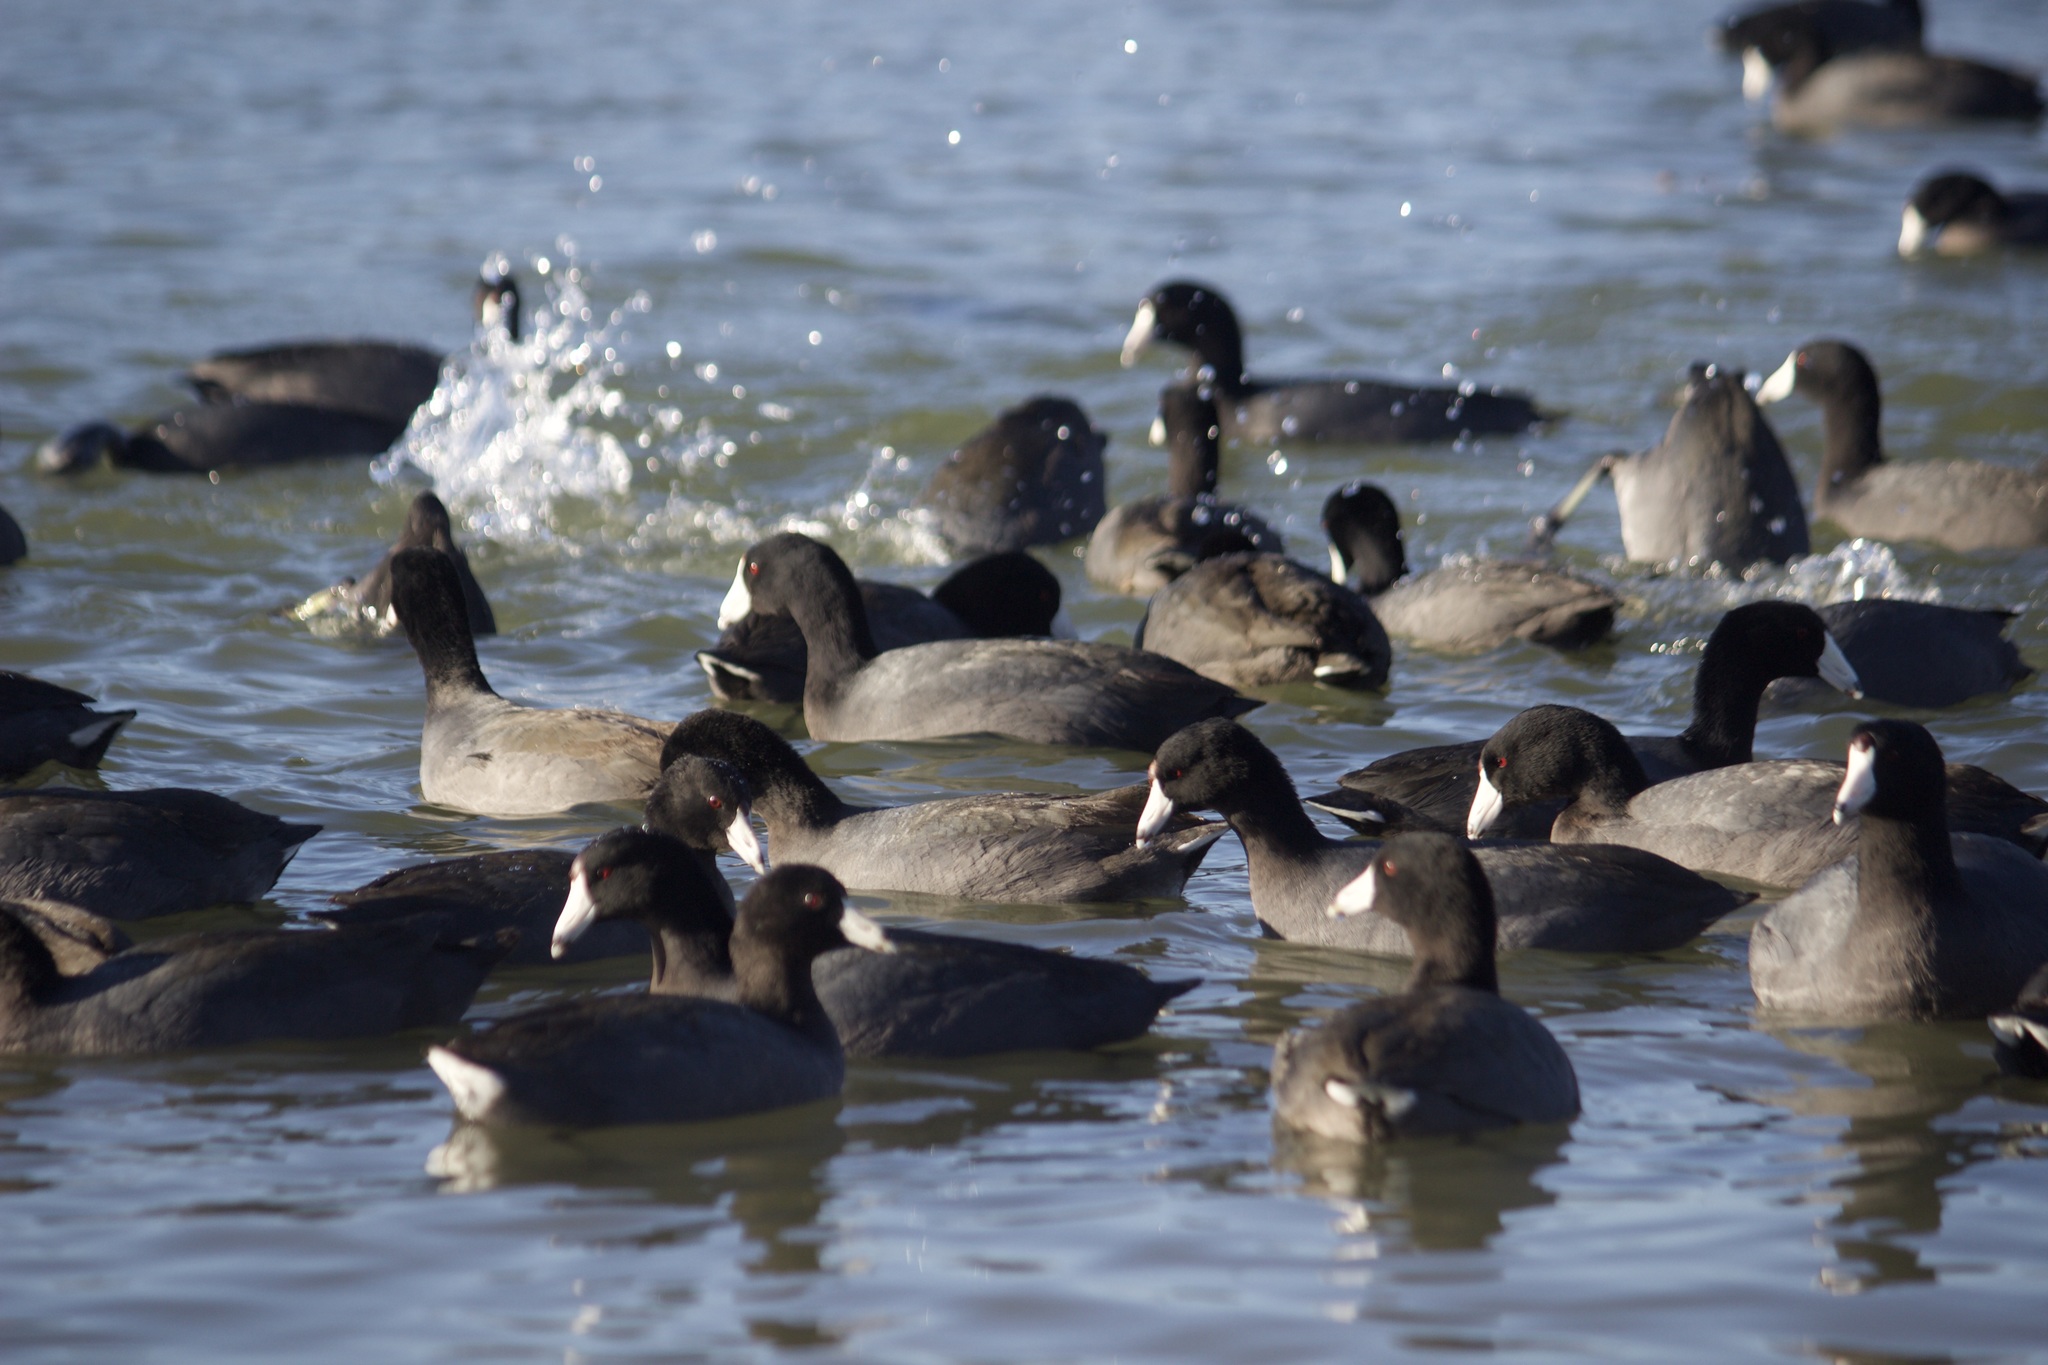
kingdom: Animalia
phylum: Chordata
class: Aves
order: Gruiformes
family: Rallidae
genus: Fulica
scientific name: Fulica americana
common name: American coot
